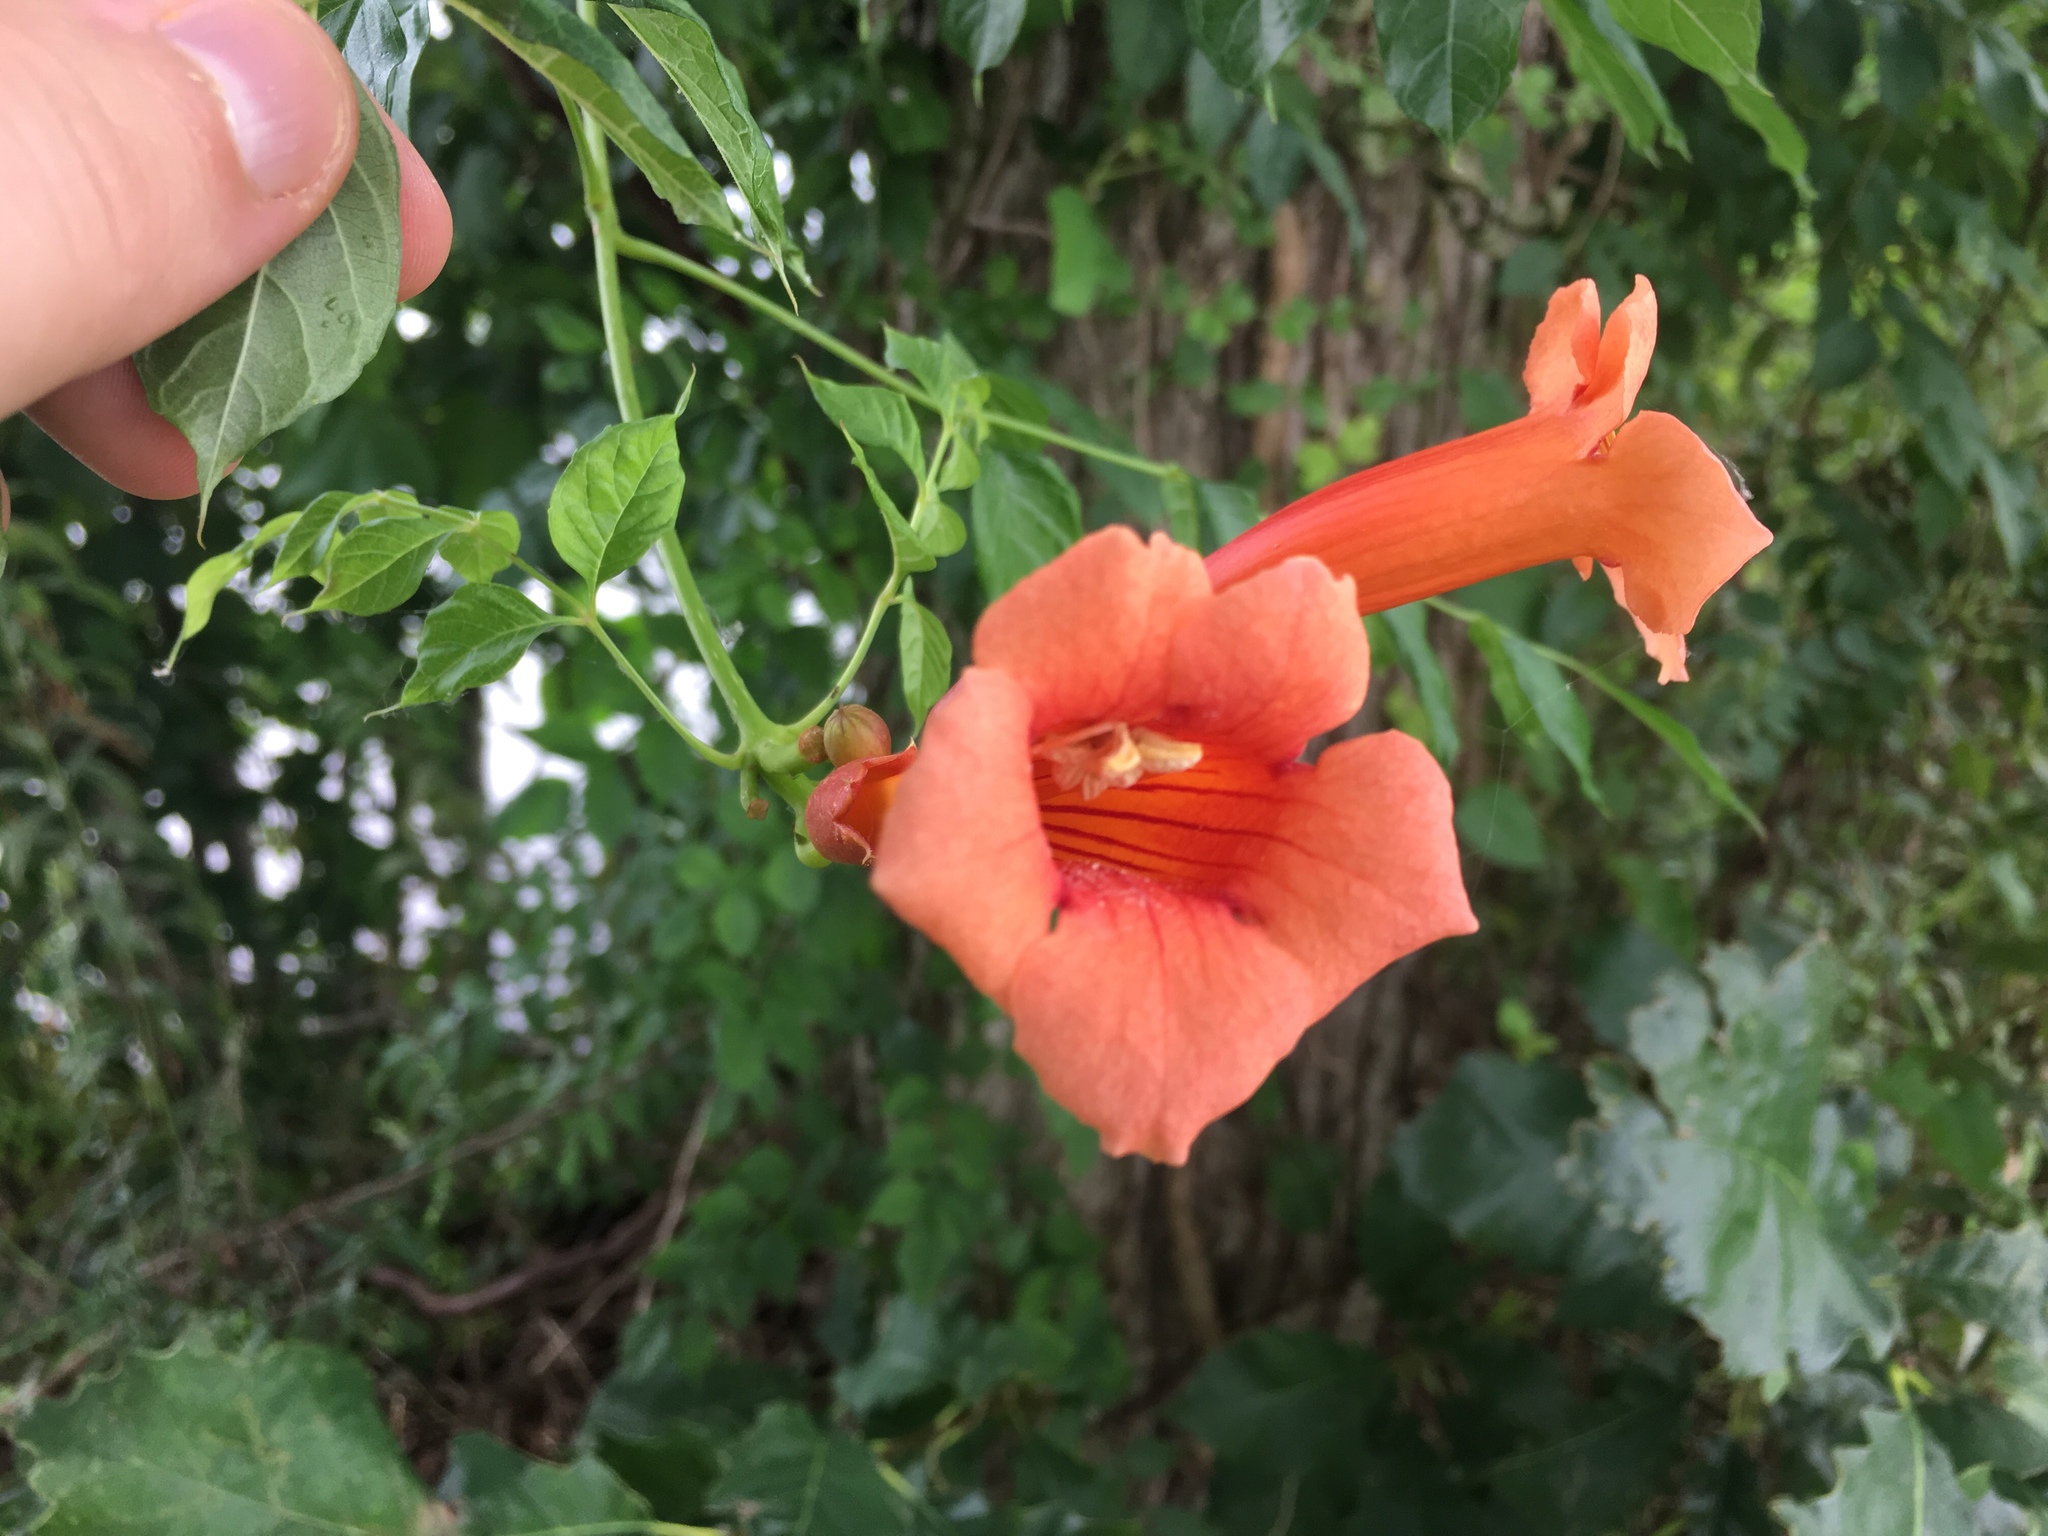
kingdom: Plantae
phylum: Tracheophyta
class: Magnoliopsida
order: Lamiales
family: Bignoniaceae
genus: Campsis
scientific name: Campsis radicans
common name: Trumpet-creeper
